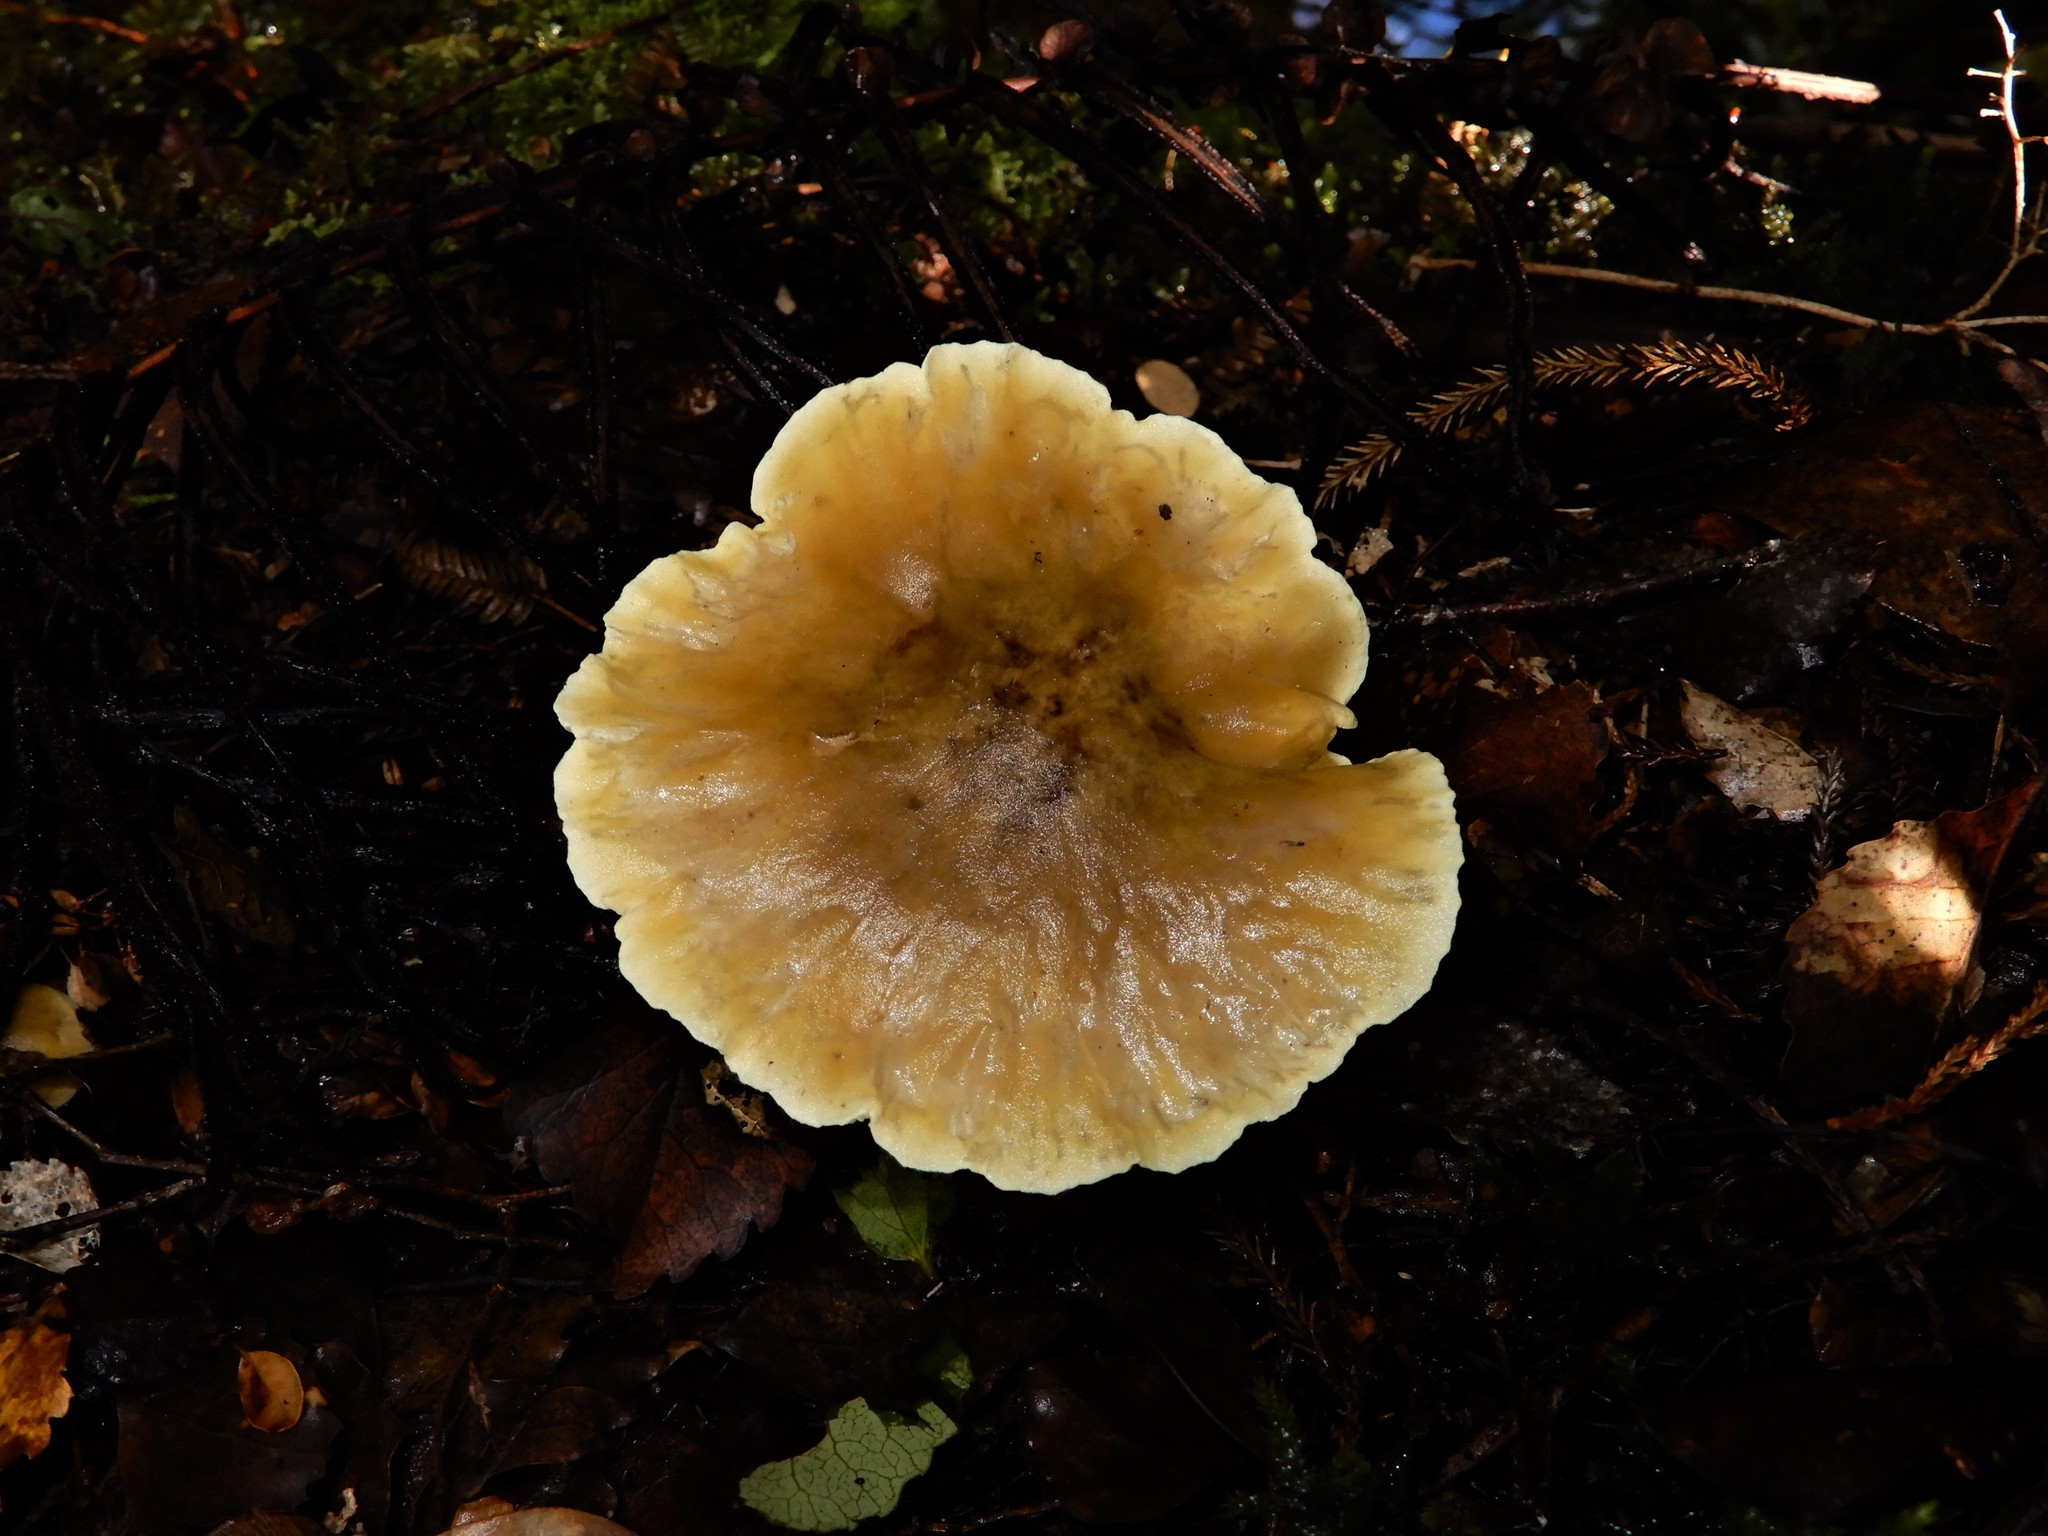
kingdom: Fungi
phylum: Basidiomycota
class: Agaricomycetes
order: Agaricales
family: Tricholomataceae
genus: Tricholoma
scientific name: Tricholoma viridiolivaceum
